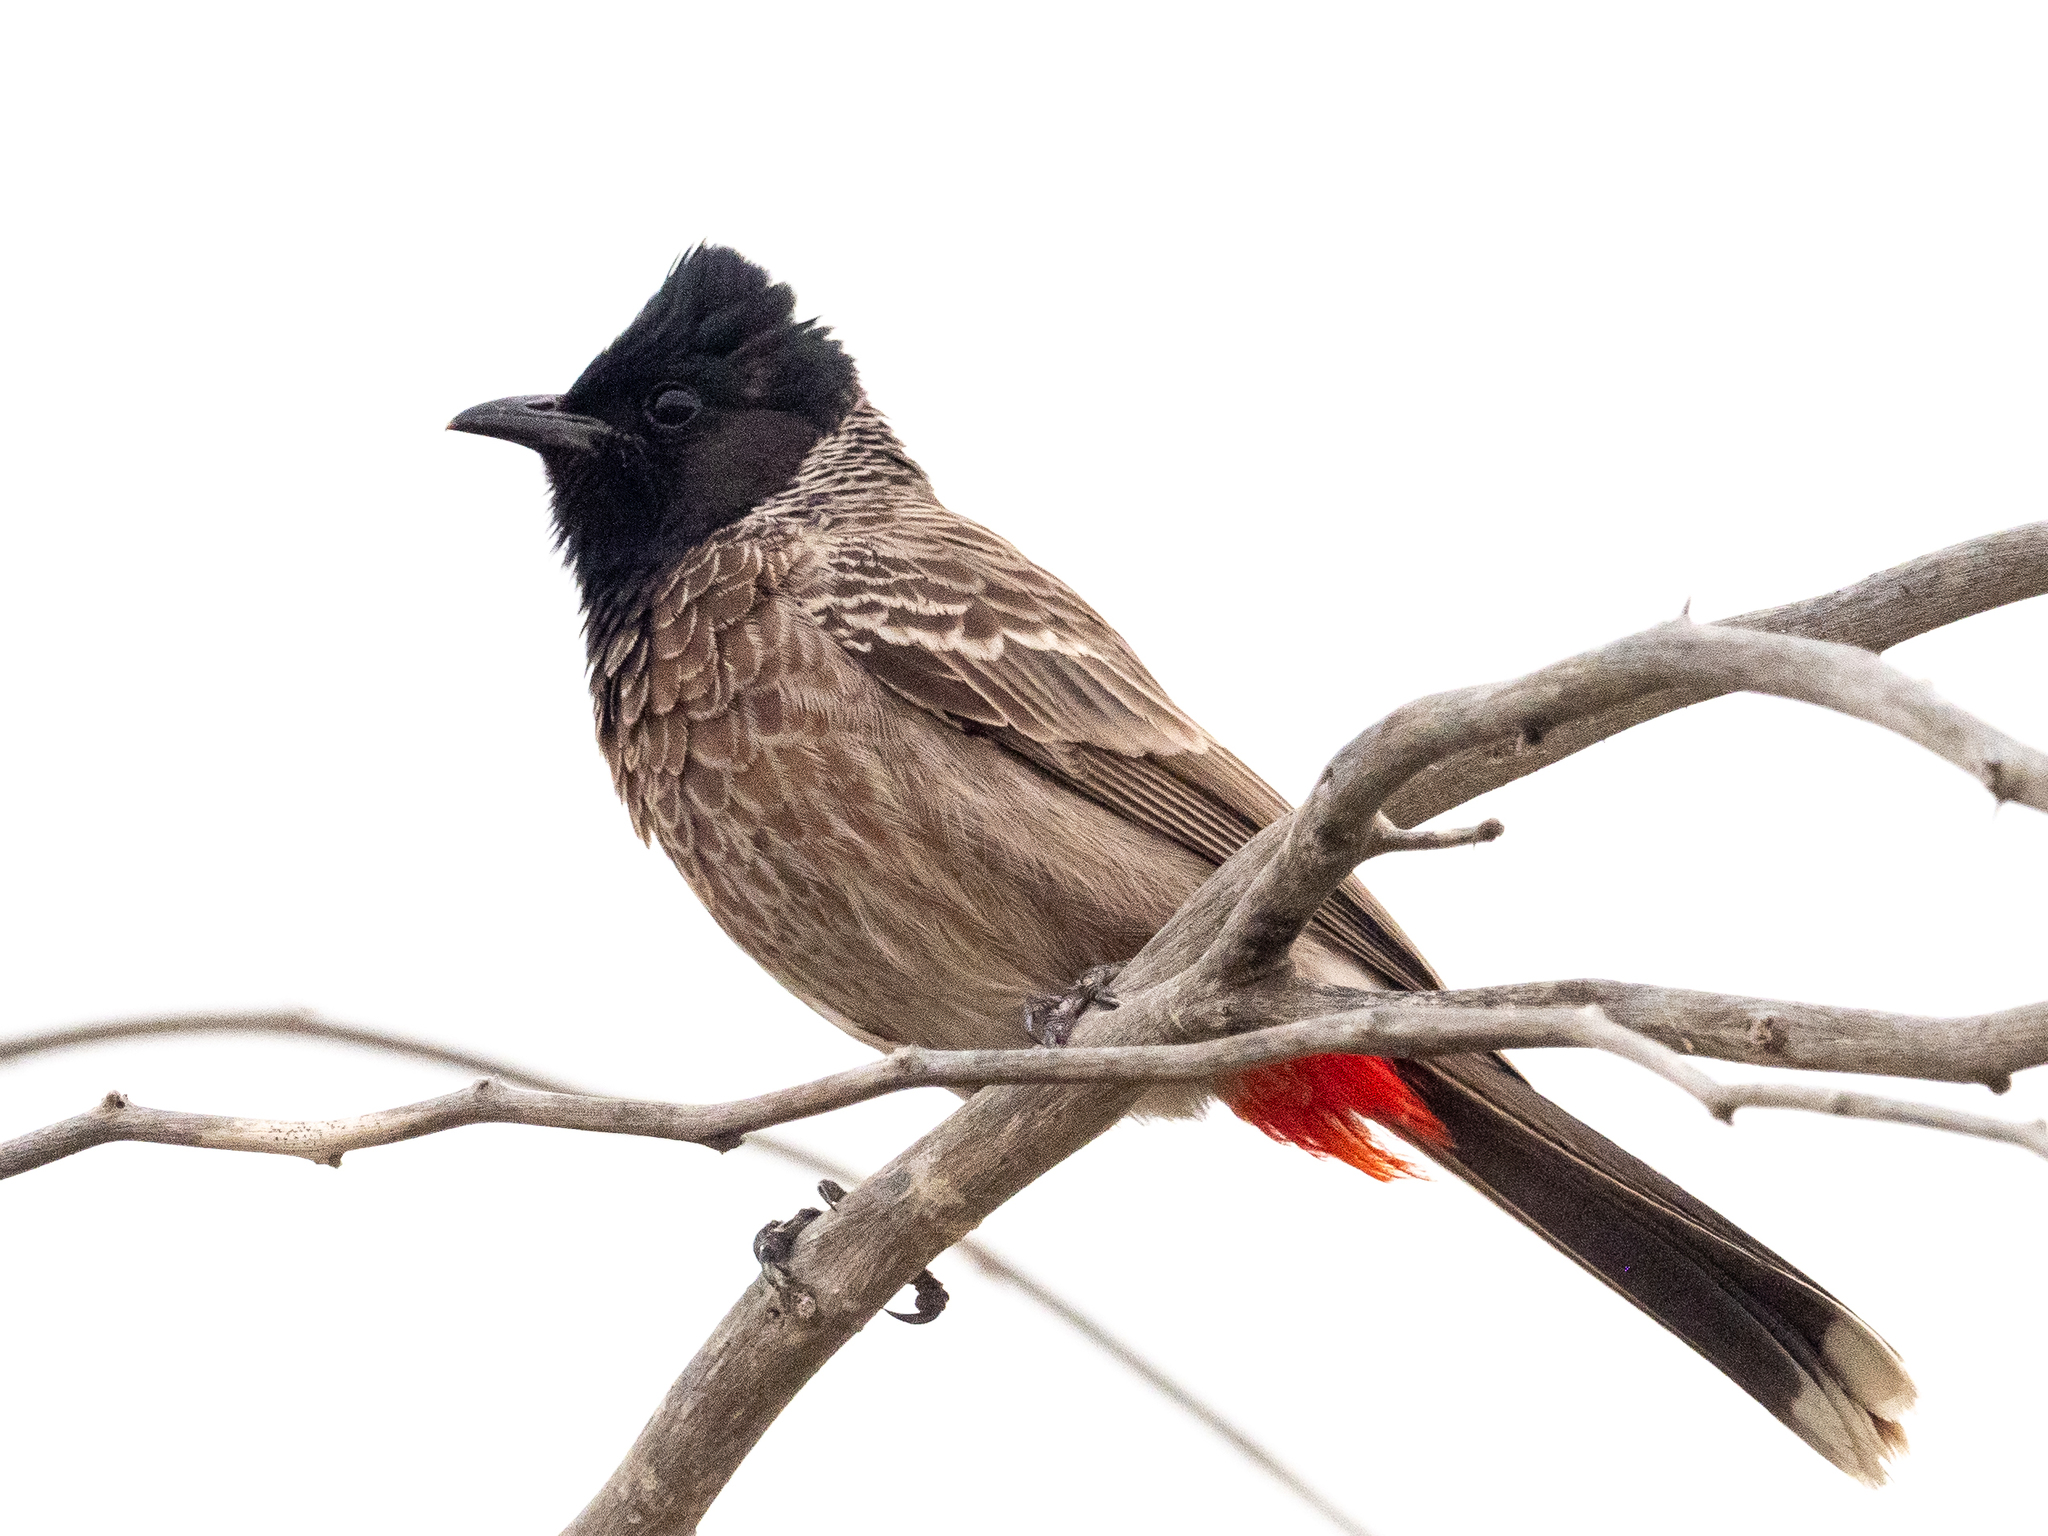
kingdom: Animalia
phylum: Chordata
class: Aves
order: Passeriformes
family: Pycnonotidae
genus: Pycnonotus
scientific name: Pycnonotus cafer
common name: Red-vented bulbul
